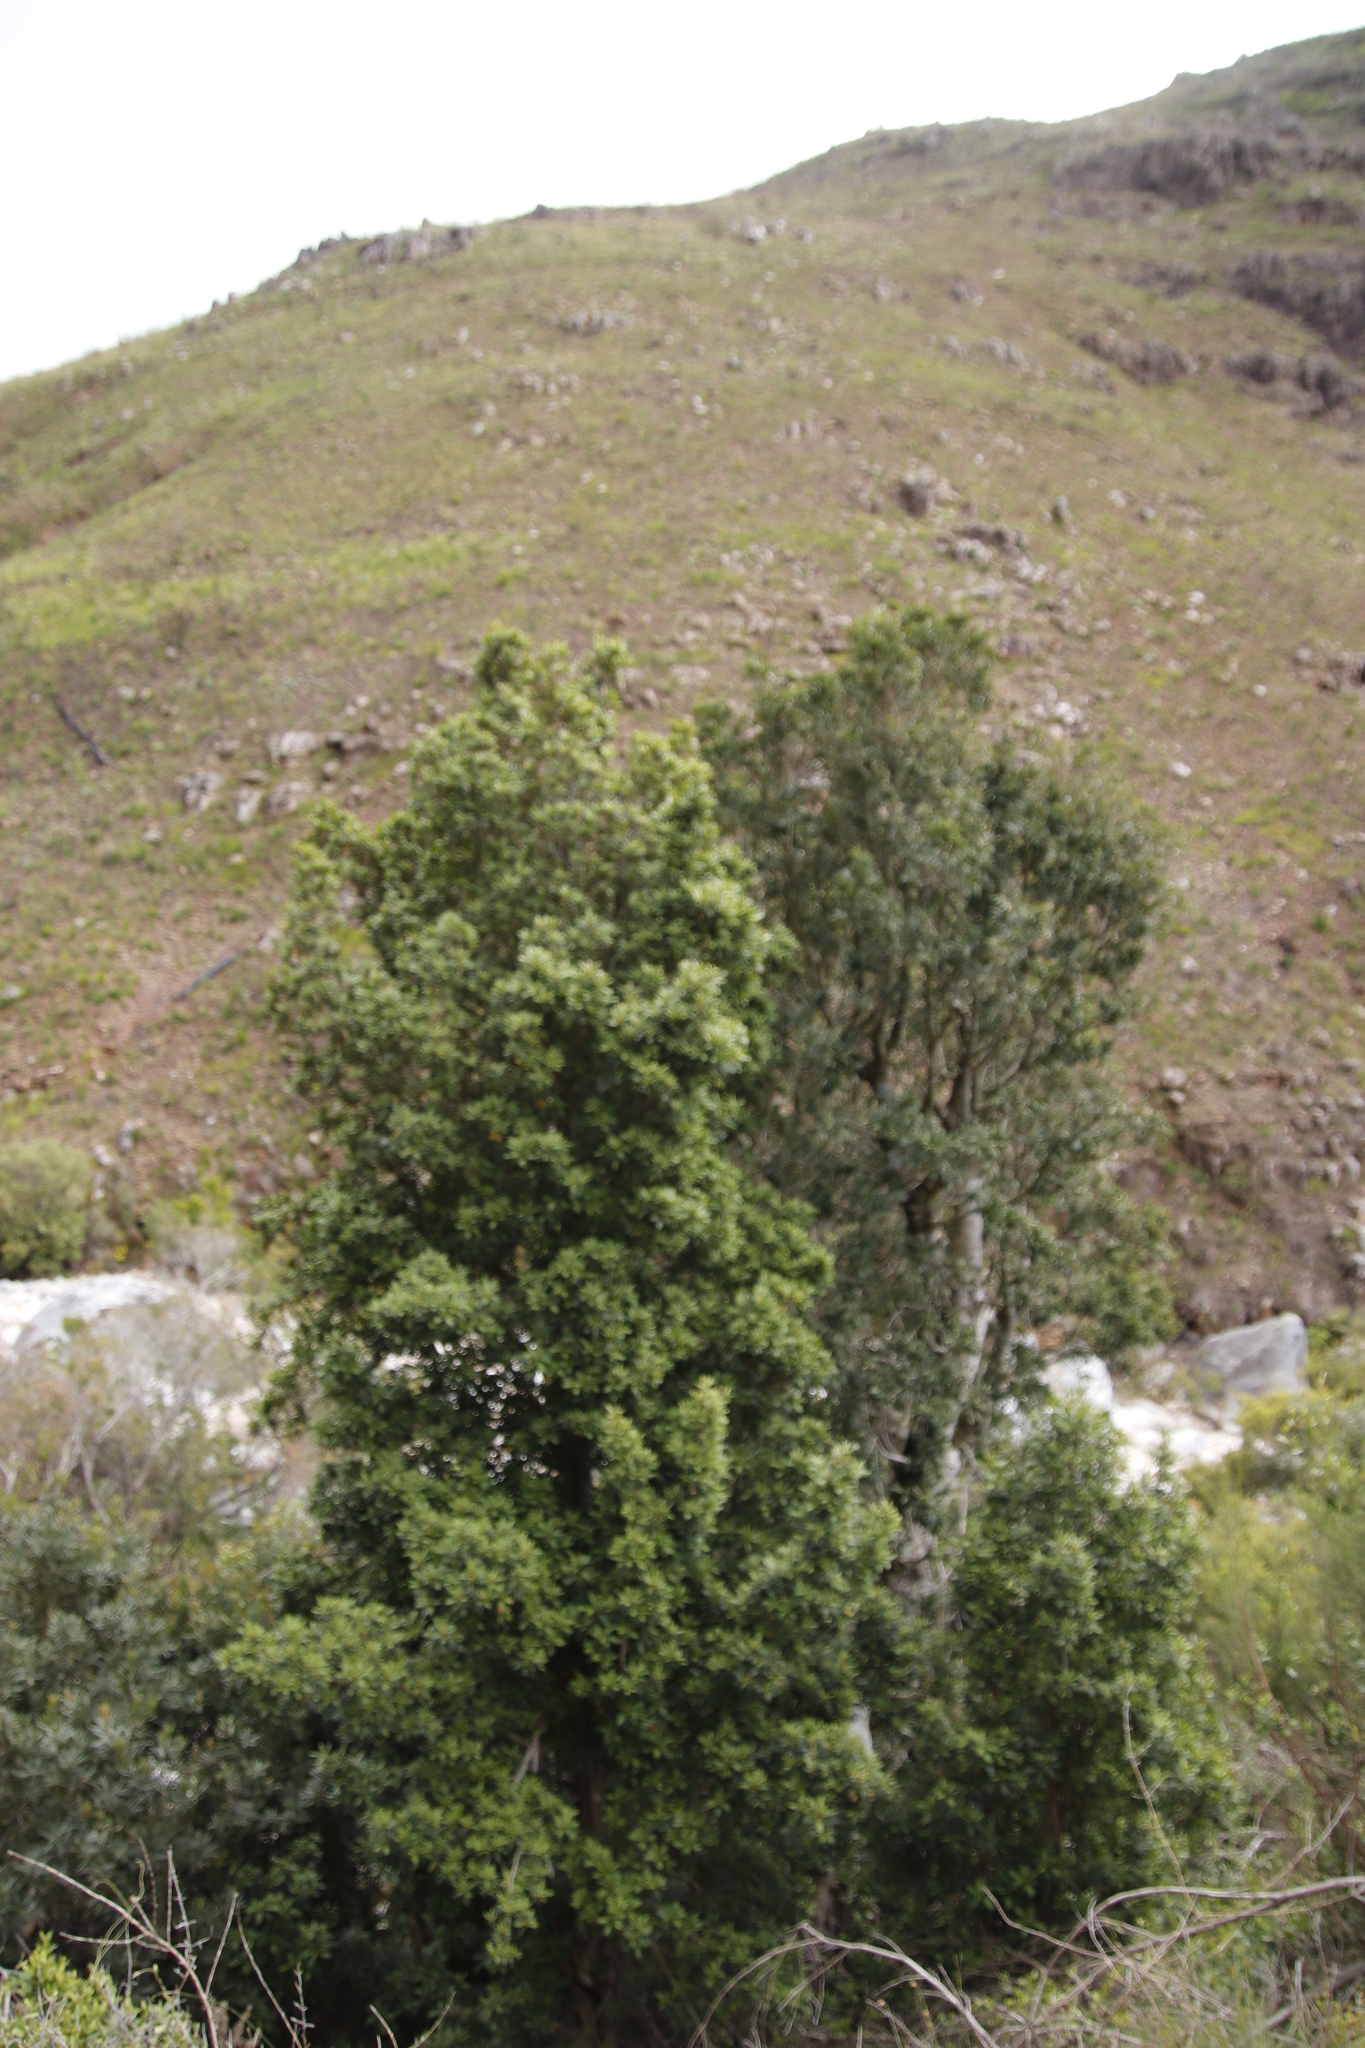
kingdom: Plantae
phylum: Tracheophyta
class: Magnoliopsida
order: Ericales
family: Primulaceae
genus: Myrsine
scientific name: Myrsine melanophloeos
